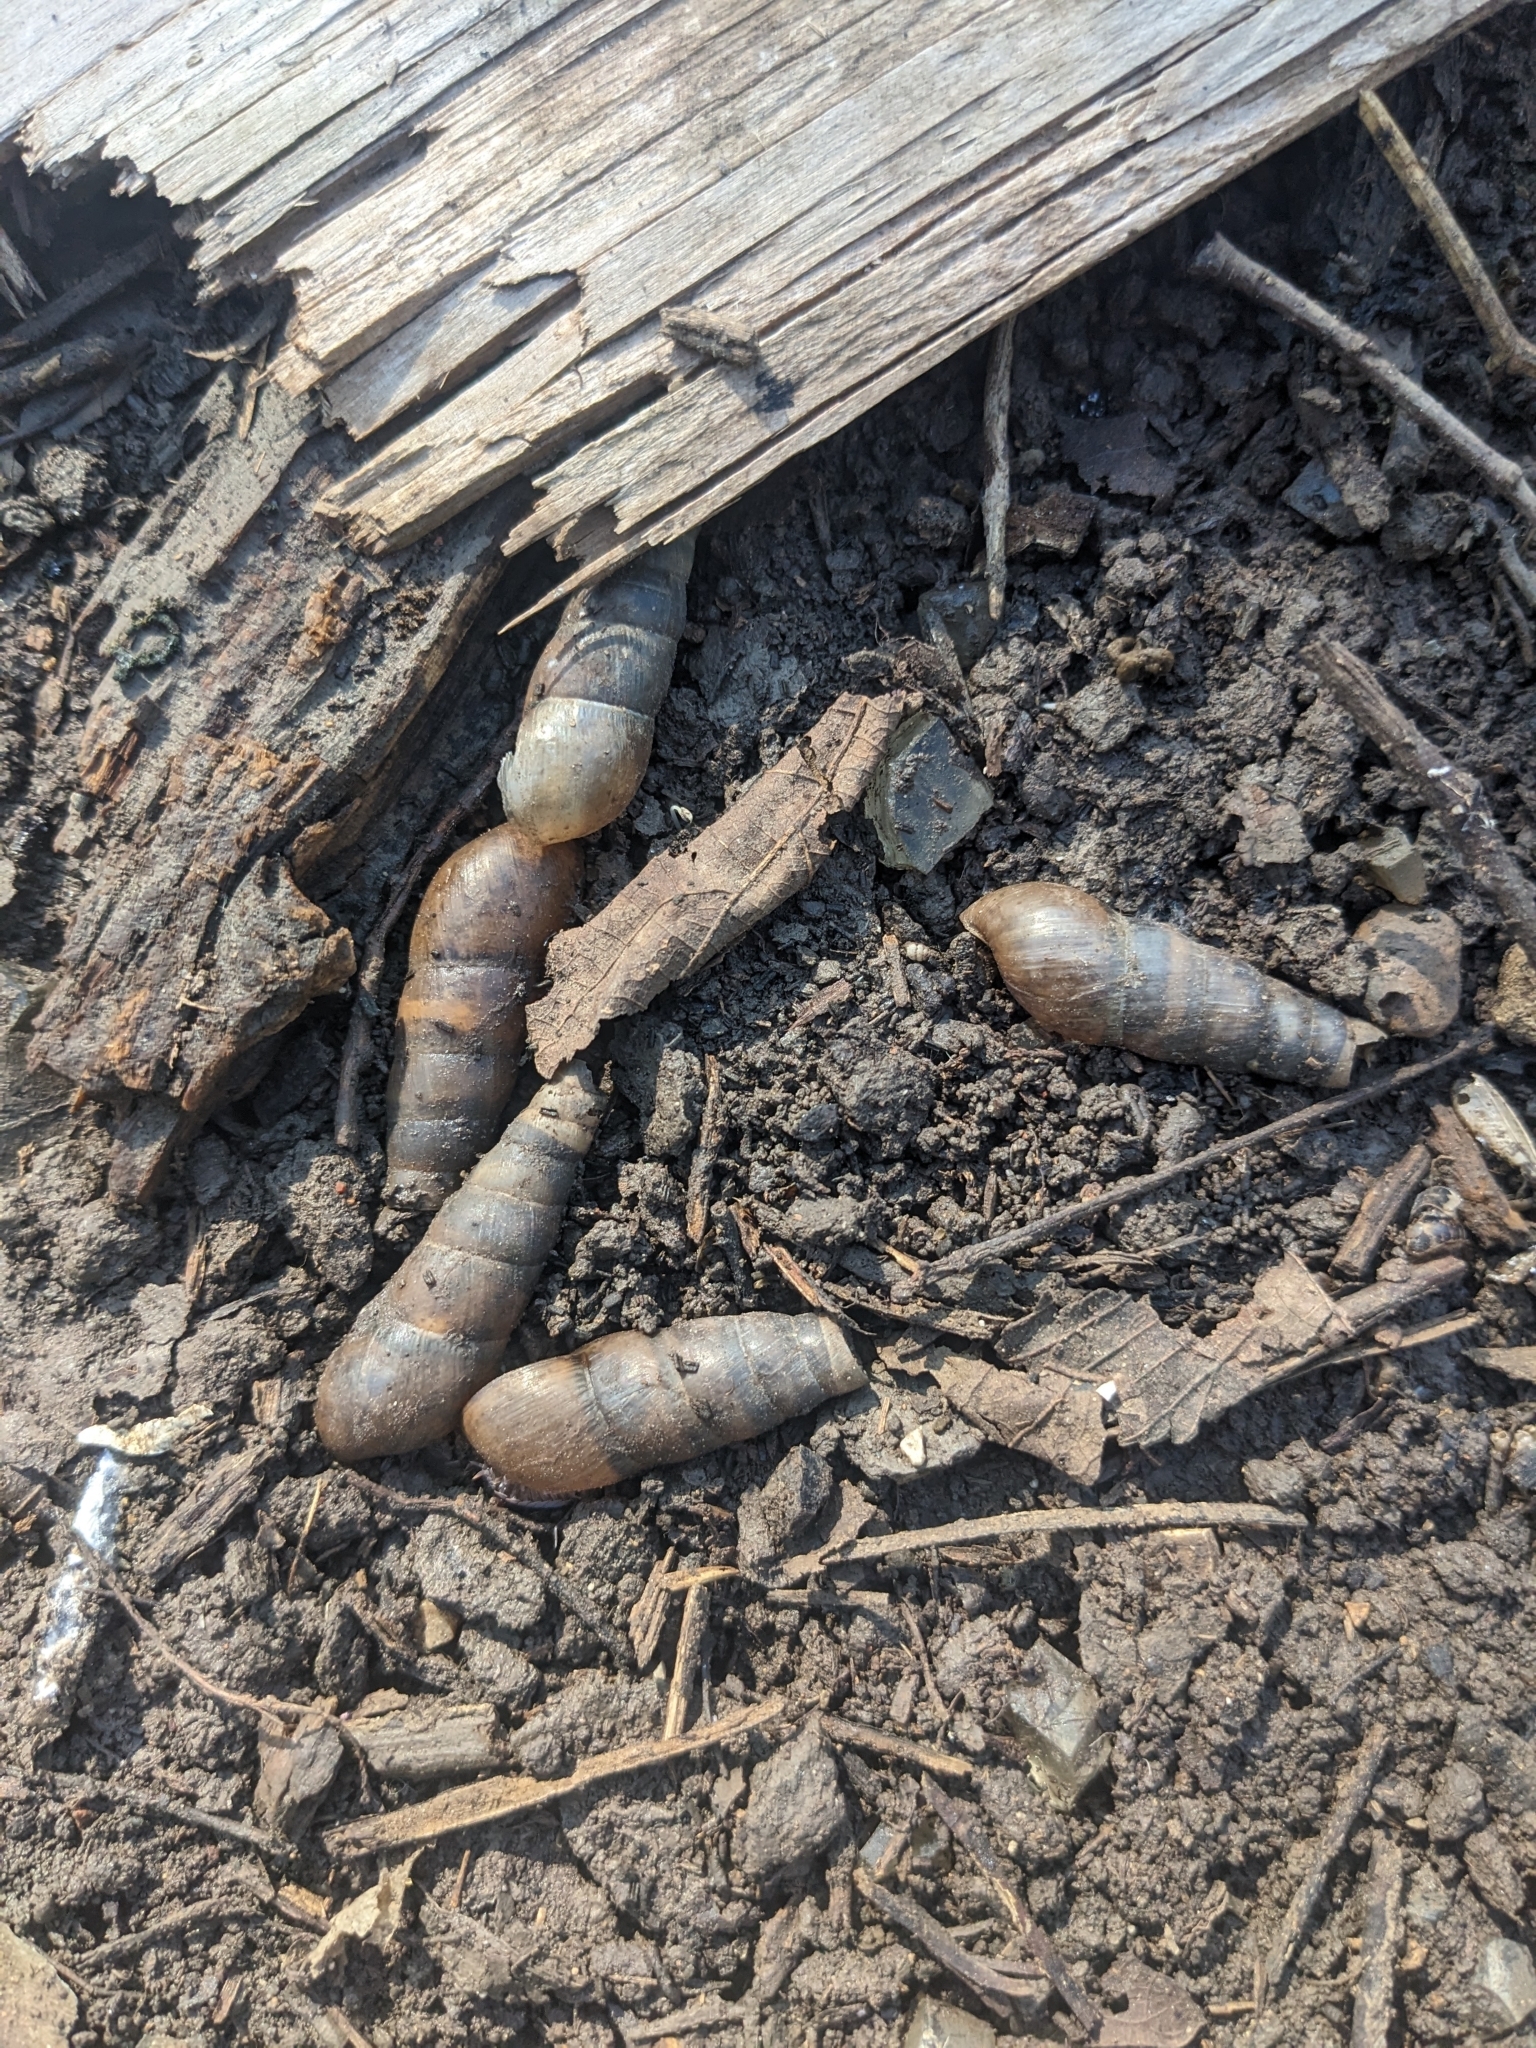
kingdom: Animalia
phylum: Mollusca
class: Gastropoda
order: Stylommatophora
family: Achatinidae
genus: Rumina
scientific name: Rumina decollata
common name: Decollate snail
